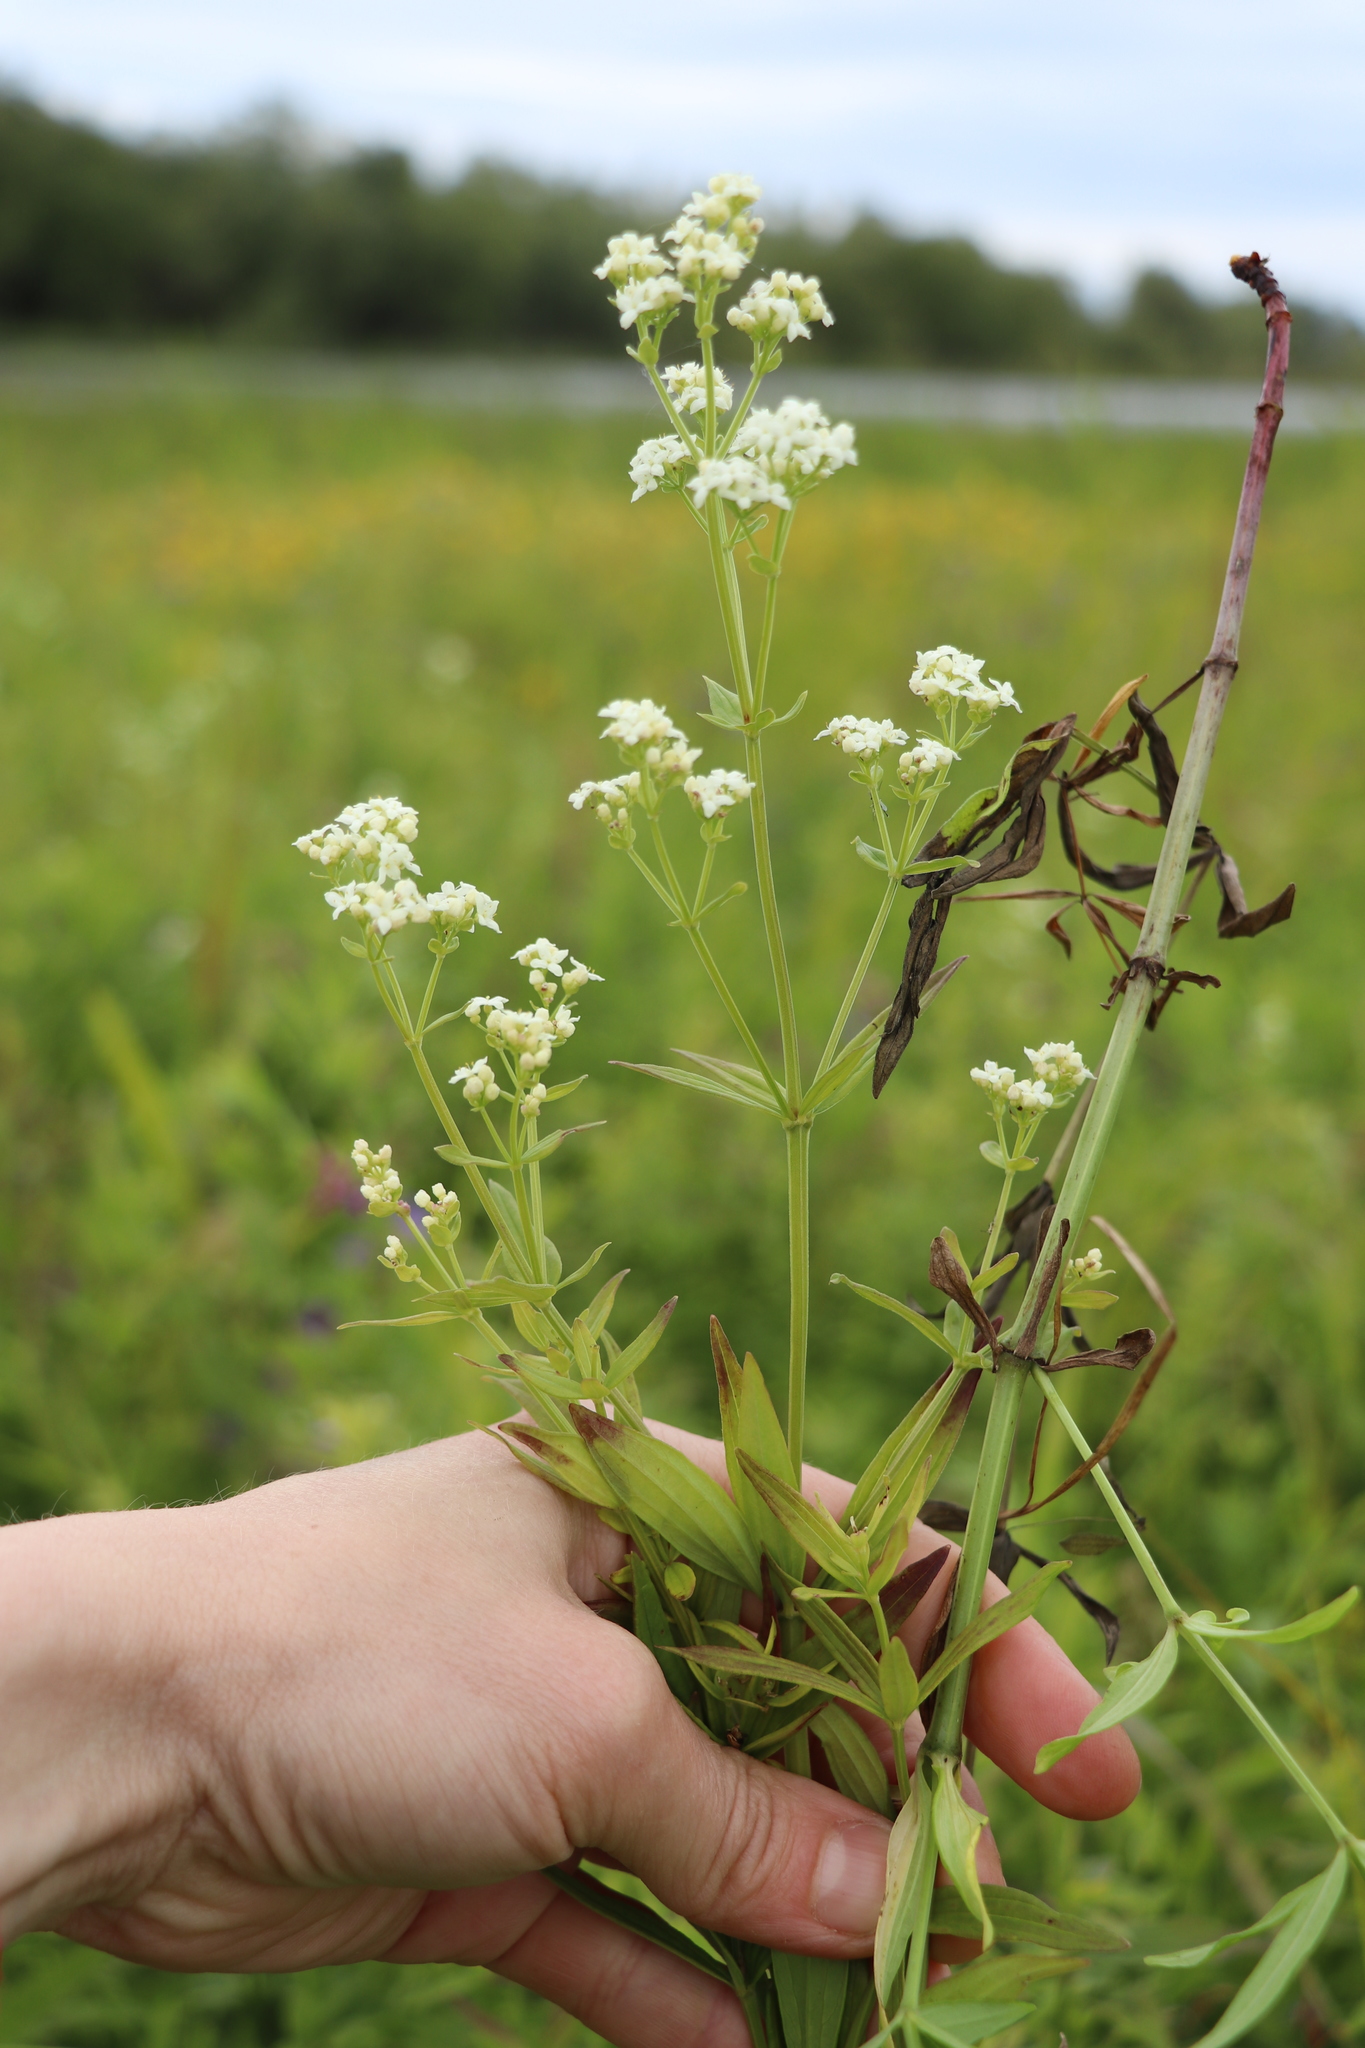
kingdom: Plantae
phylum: Tracheophyta
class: Magnoliopsida
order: Gentianales
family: Rubiaceae
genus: Galium
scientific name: Galium boreale
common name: Northern bedstraw
